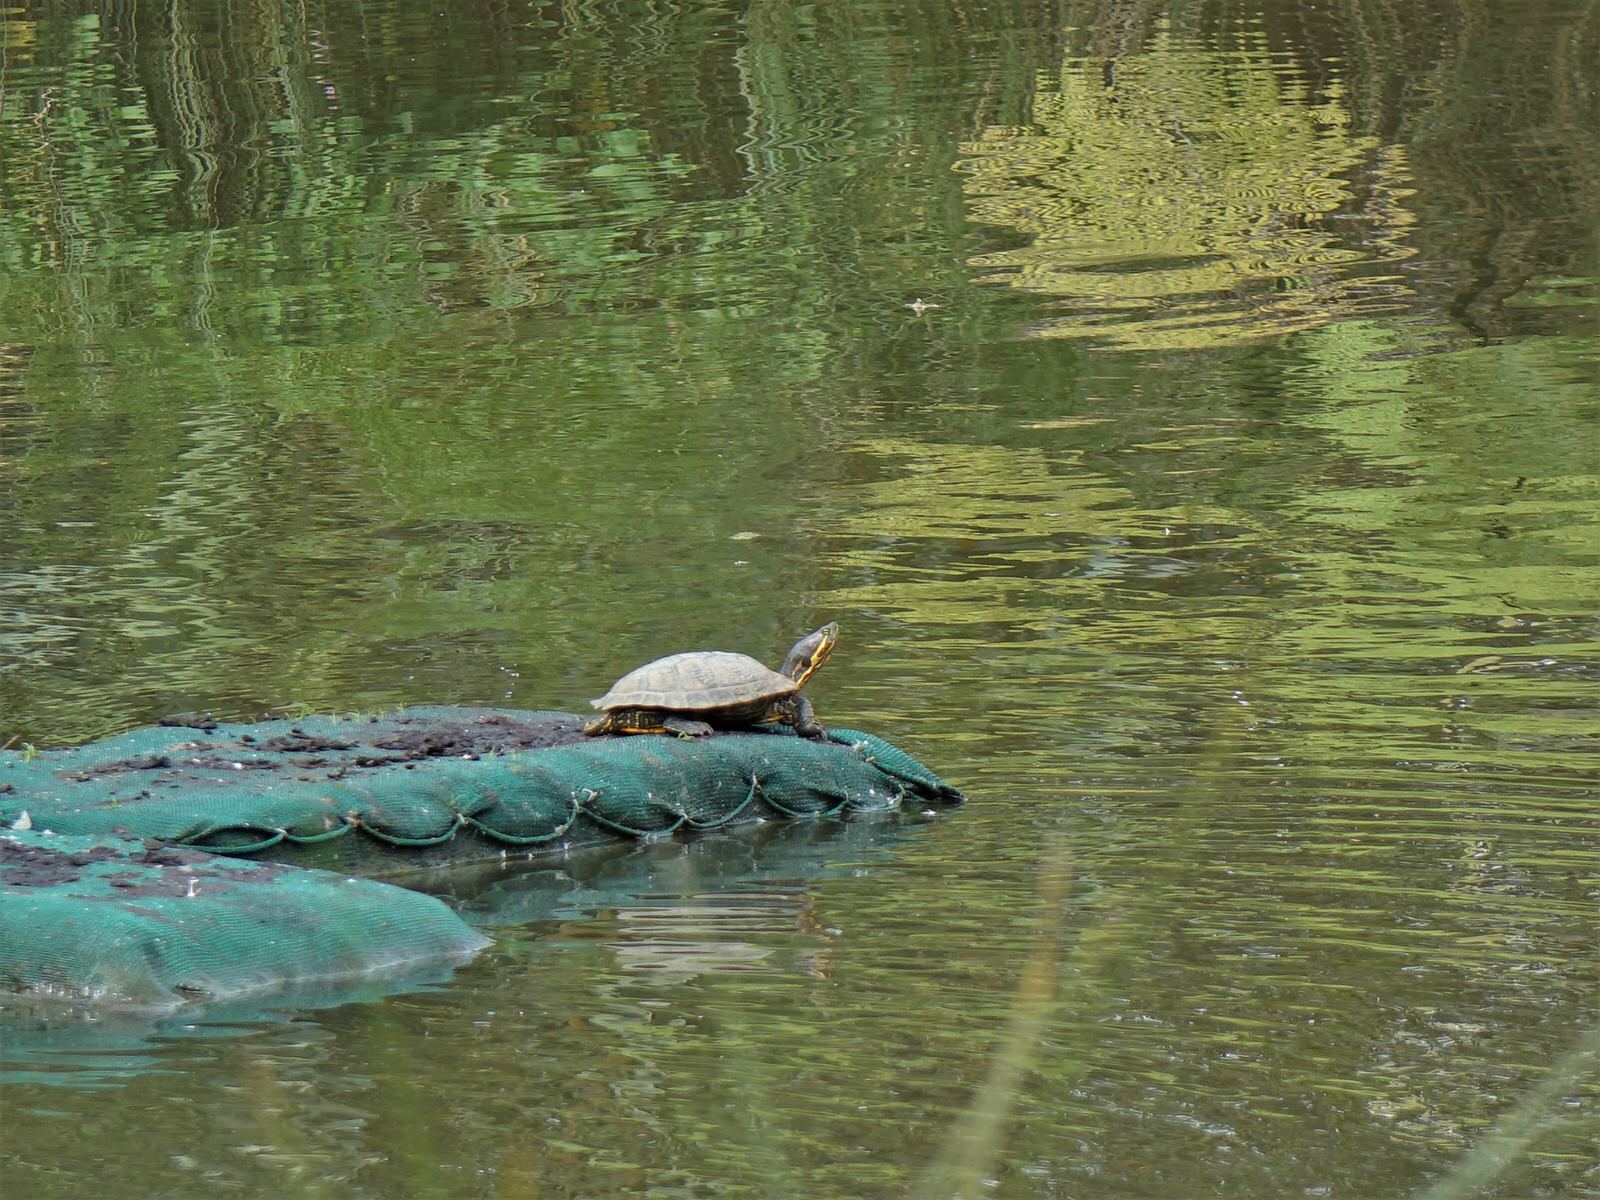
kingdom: Animalia
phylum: Chordata
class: Testudines
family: Emydidae
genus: Trachemys
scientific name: Trachemys scripta
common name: Slider
